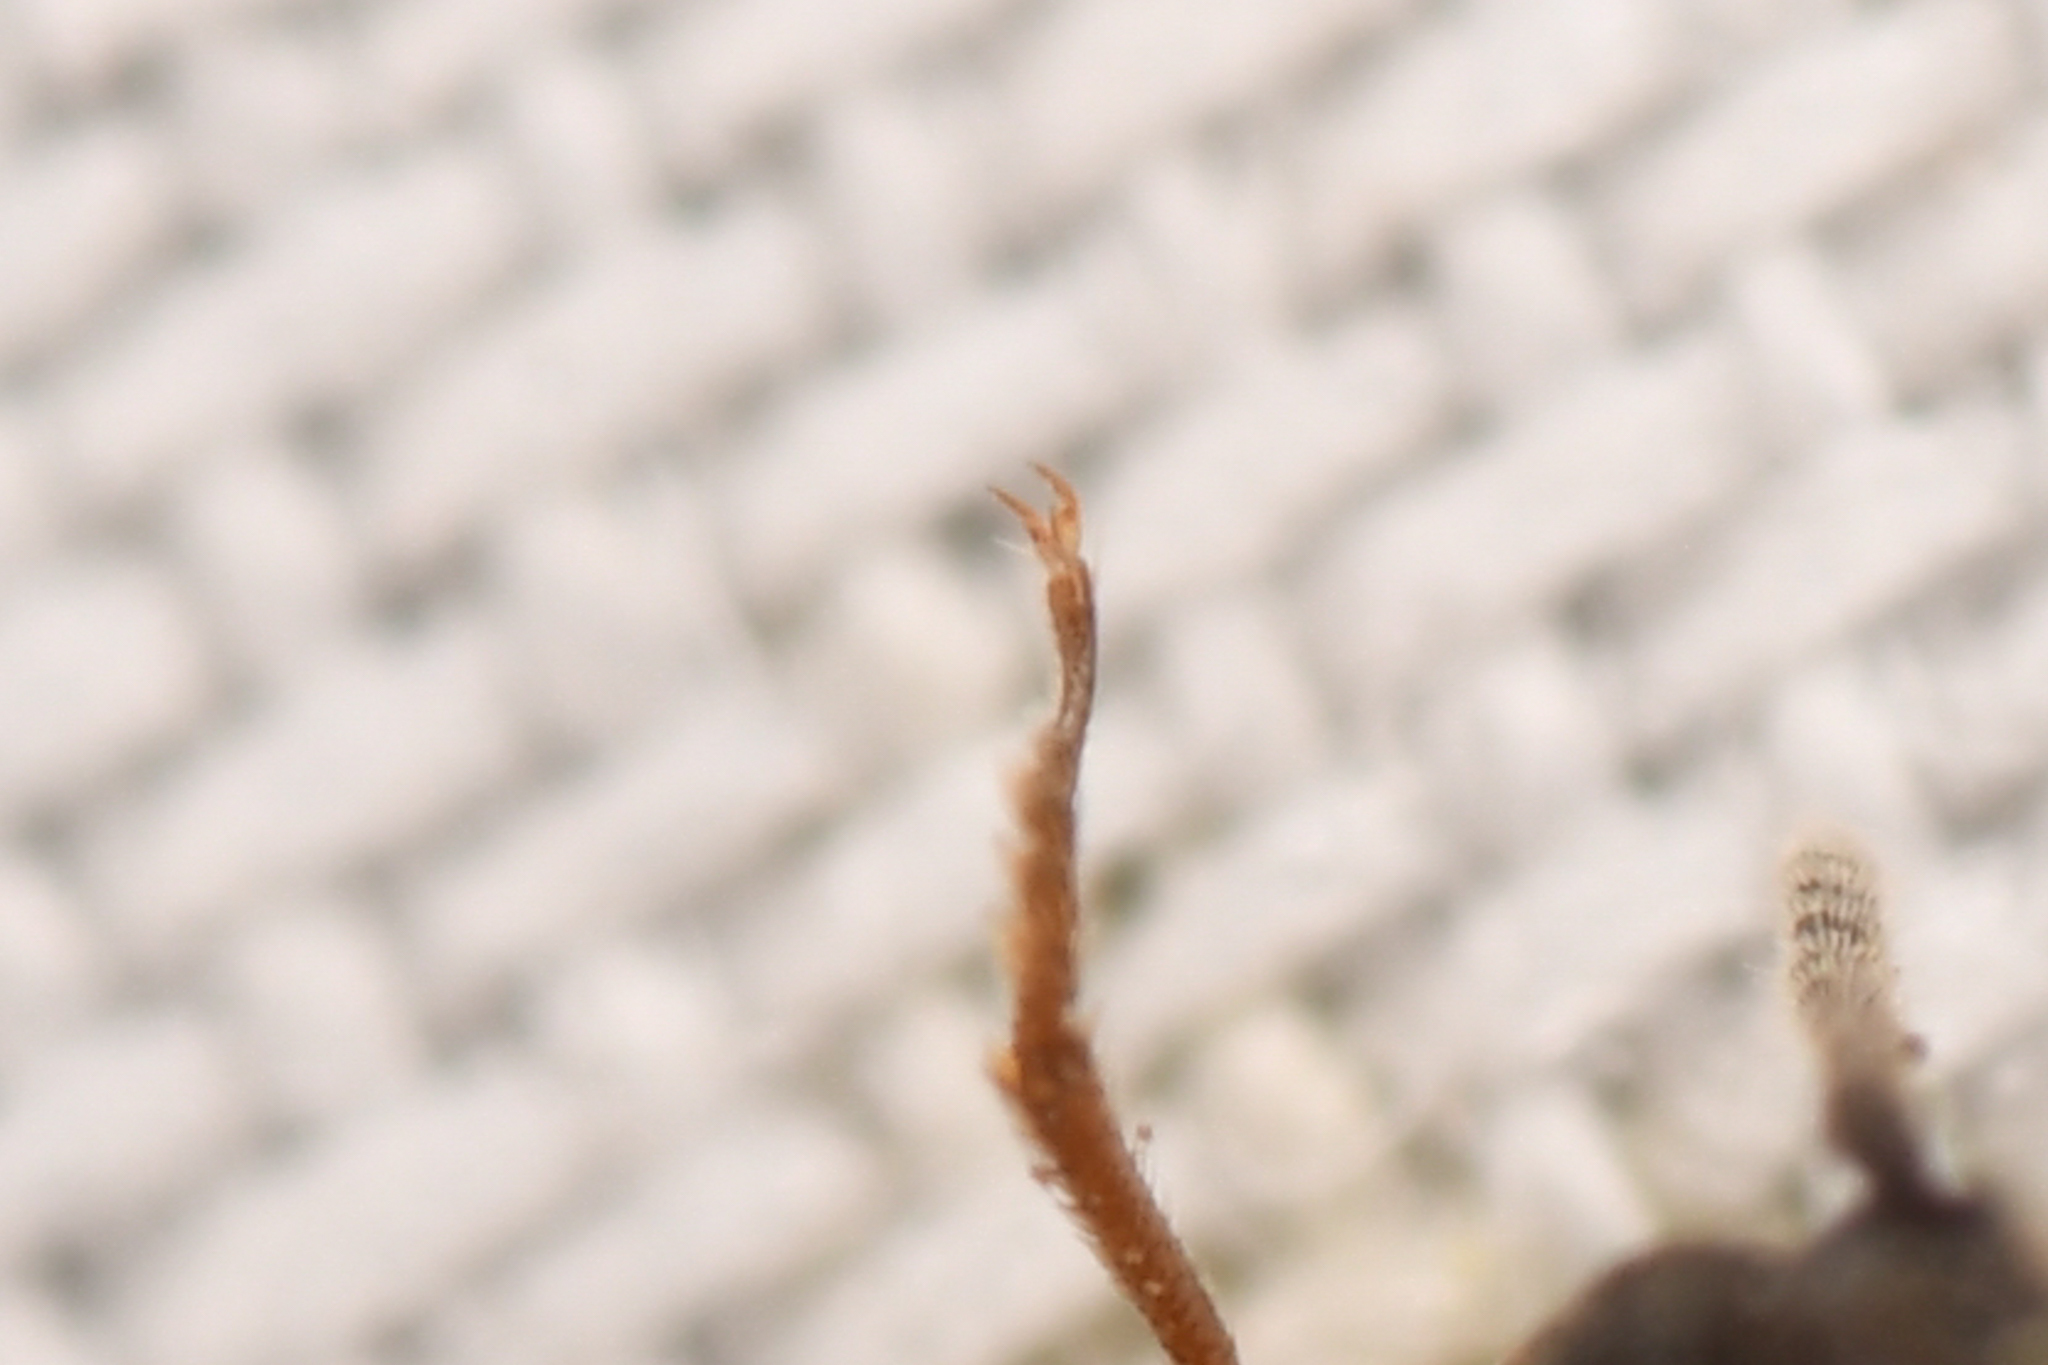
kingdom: Animalia
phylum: Arthropoda
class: Insecta
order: Coleoptera
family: Elateridae
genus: Oxygonus
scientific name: Oxygonus
